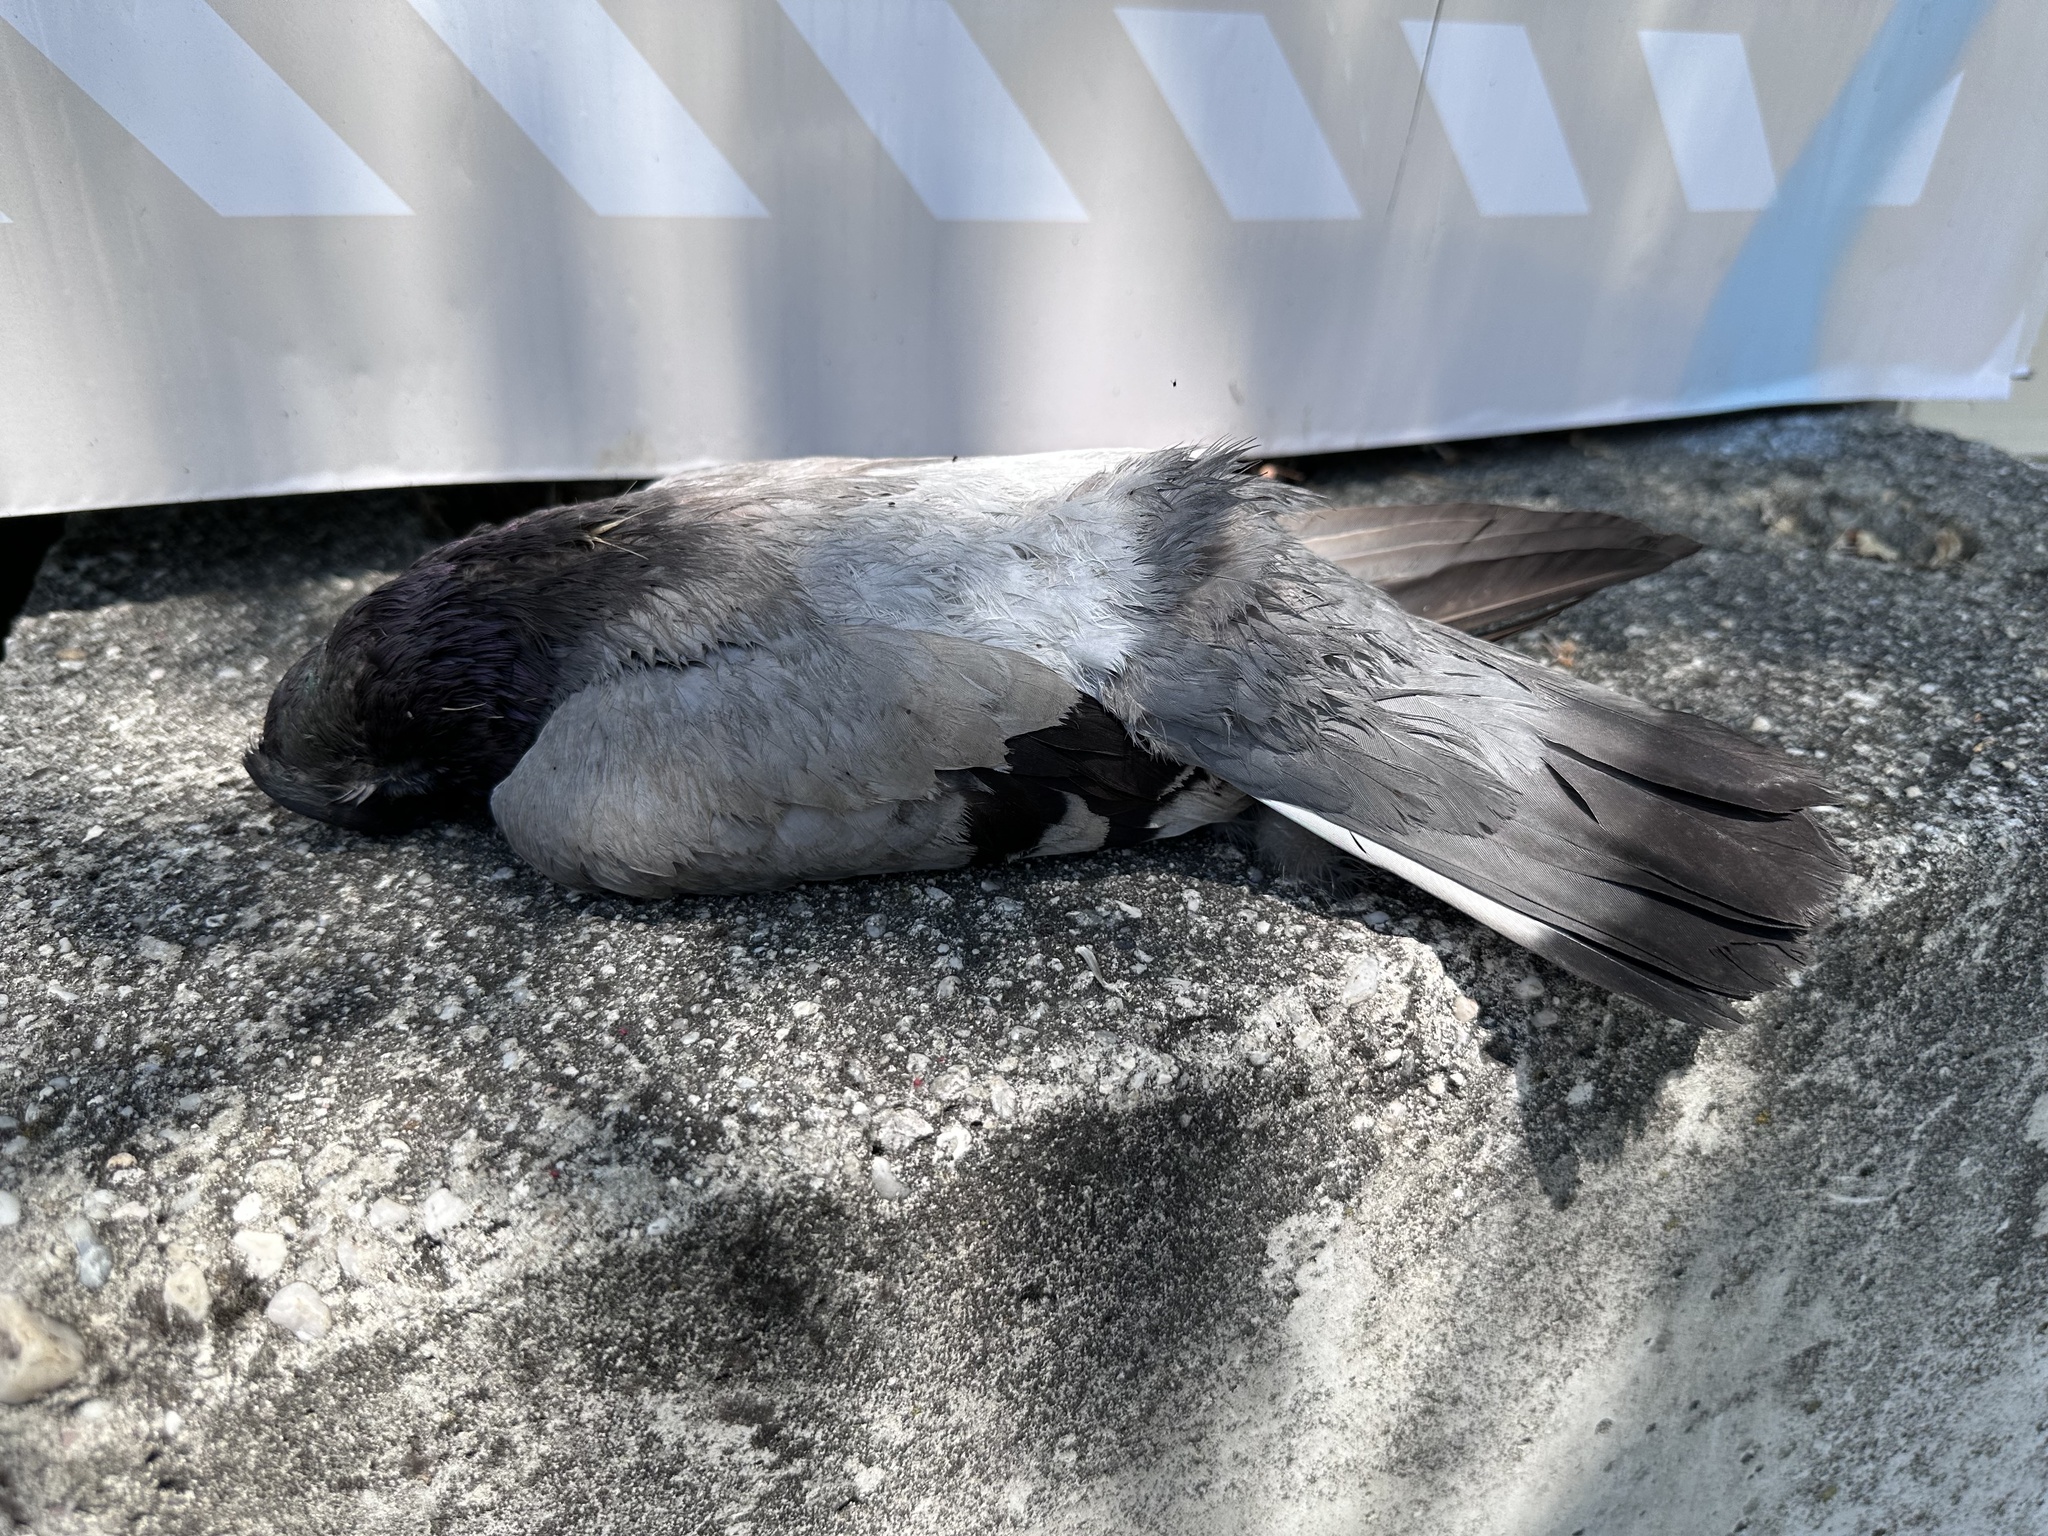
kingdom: Animalia
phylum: Chordata
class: Aves
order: Columbiformes
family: Columbidae
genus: Columba
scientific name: Columba livia
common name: Rock pigeon
